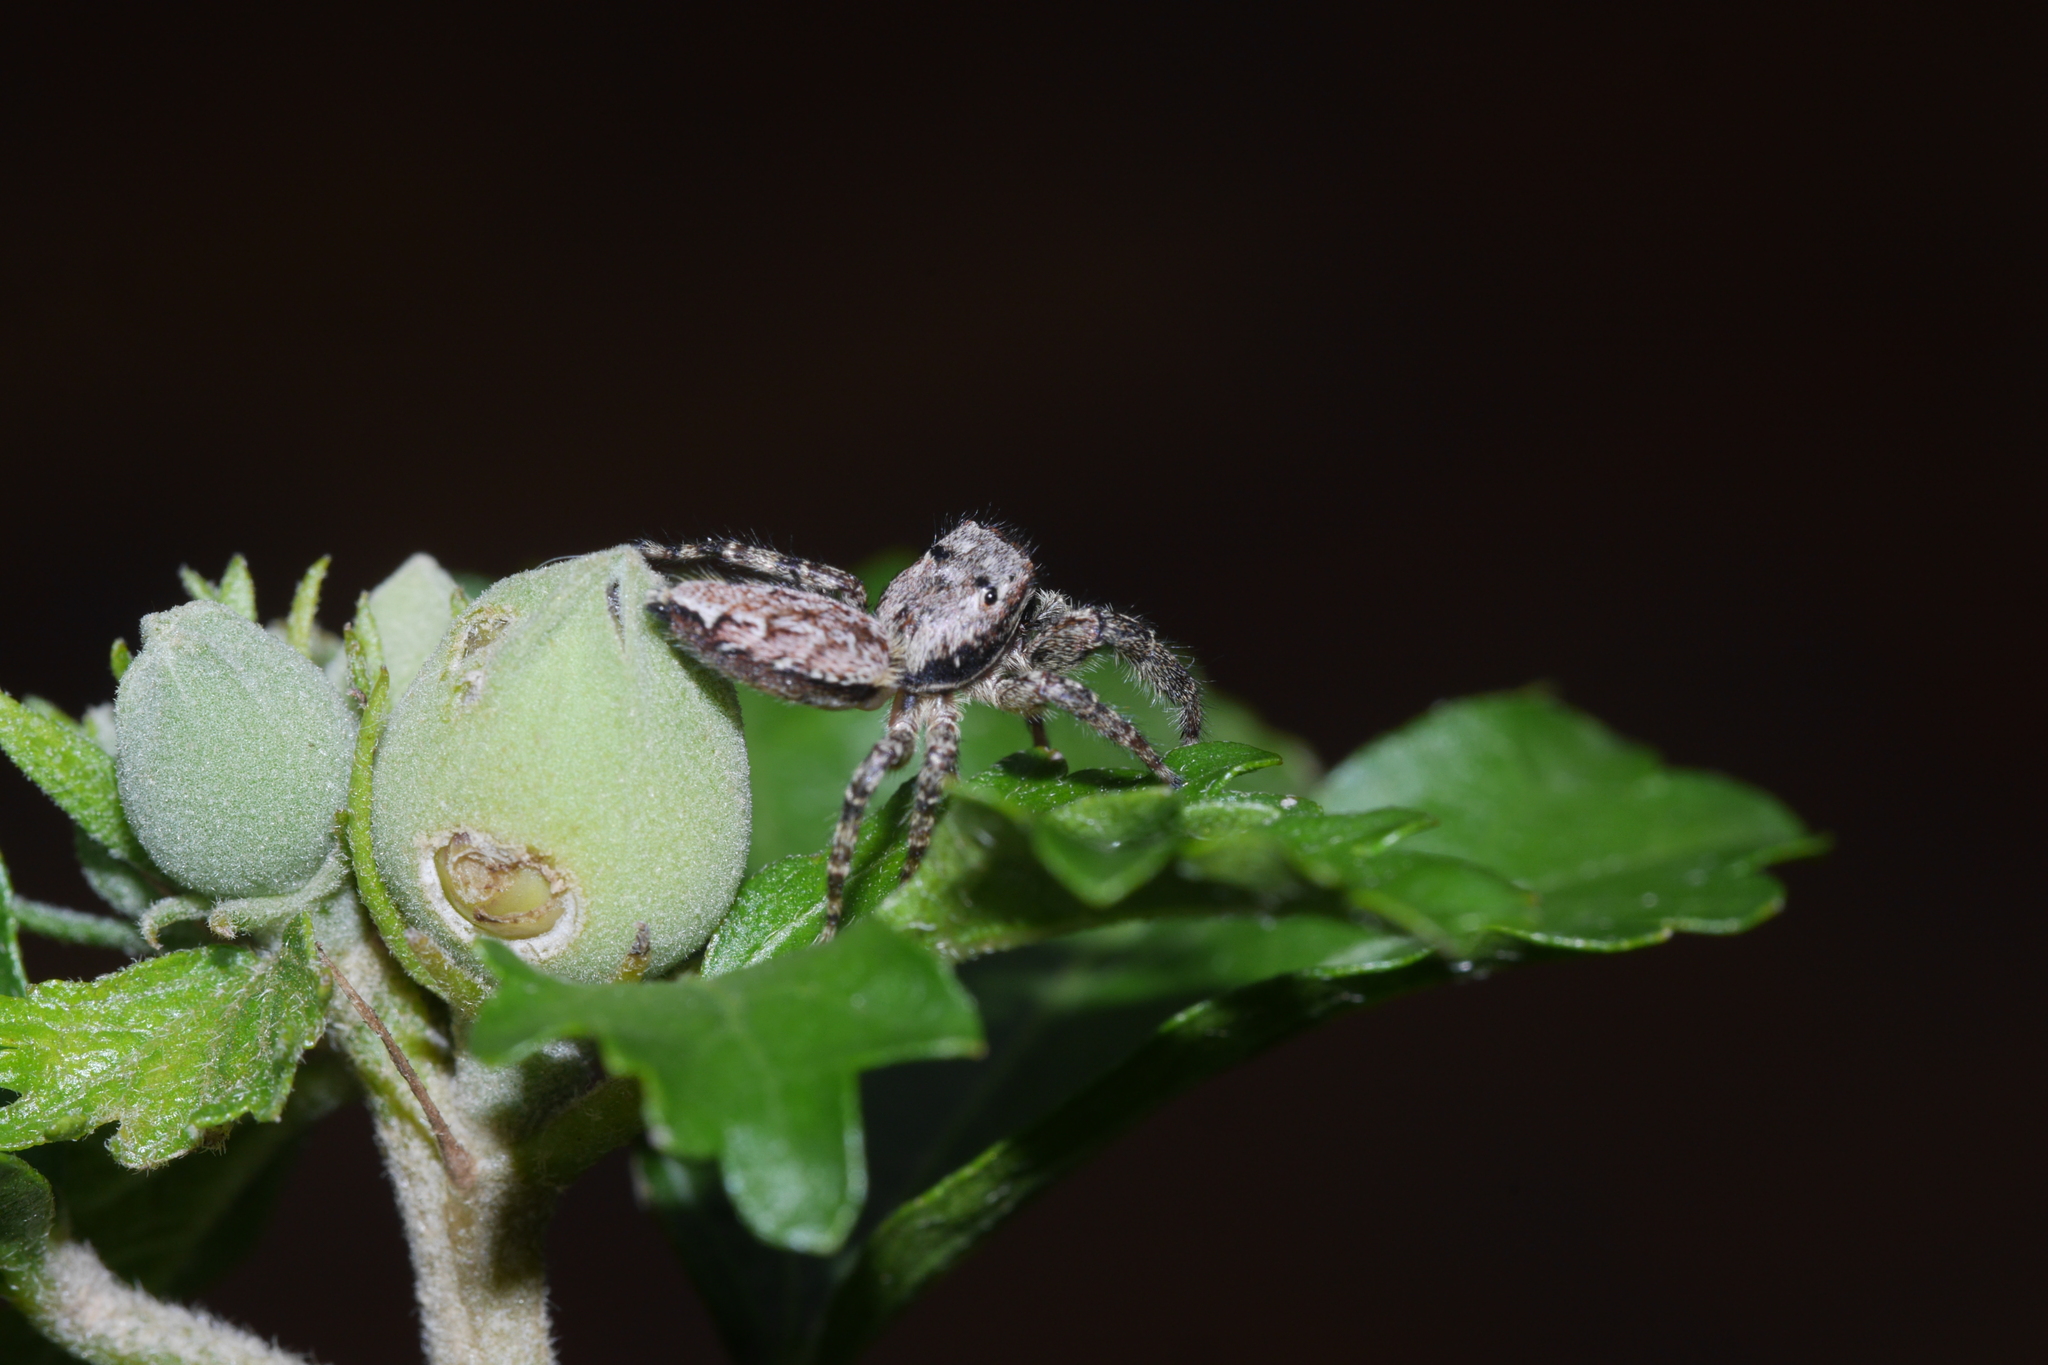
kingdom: Animalia
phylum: Arthropoda
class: Arachnida
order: Araneae
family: Salticidae
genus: Marpissa
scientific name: Marpissa muscosa
